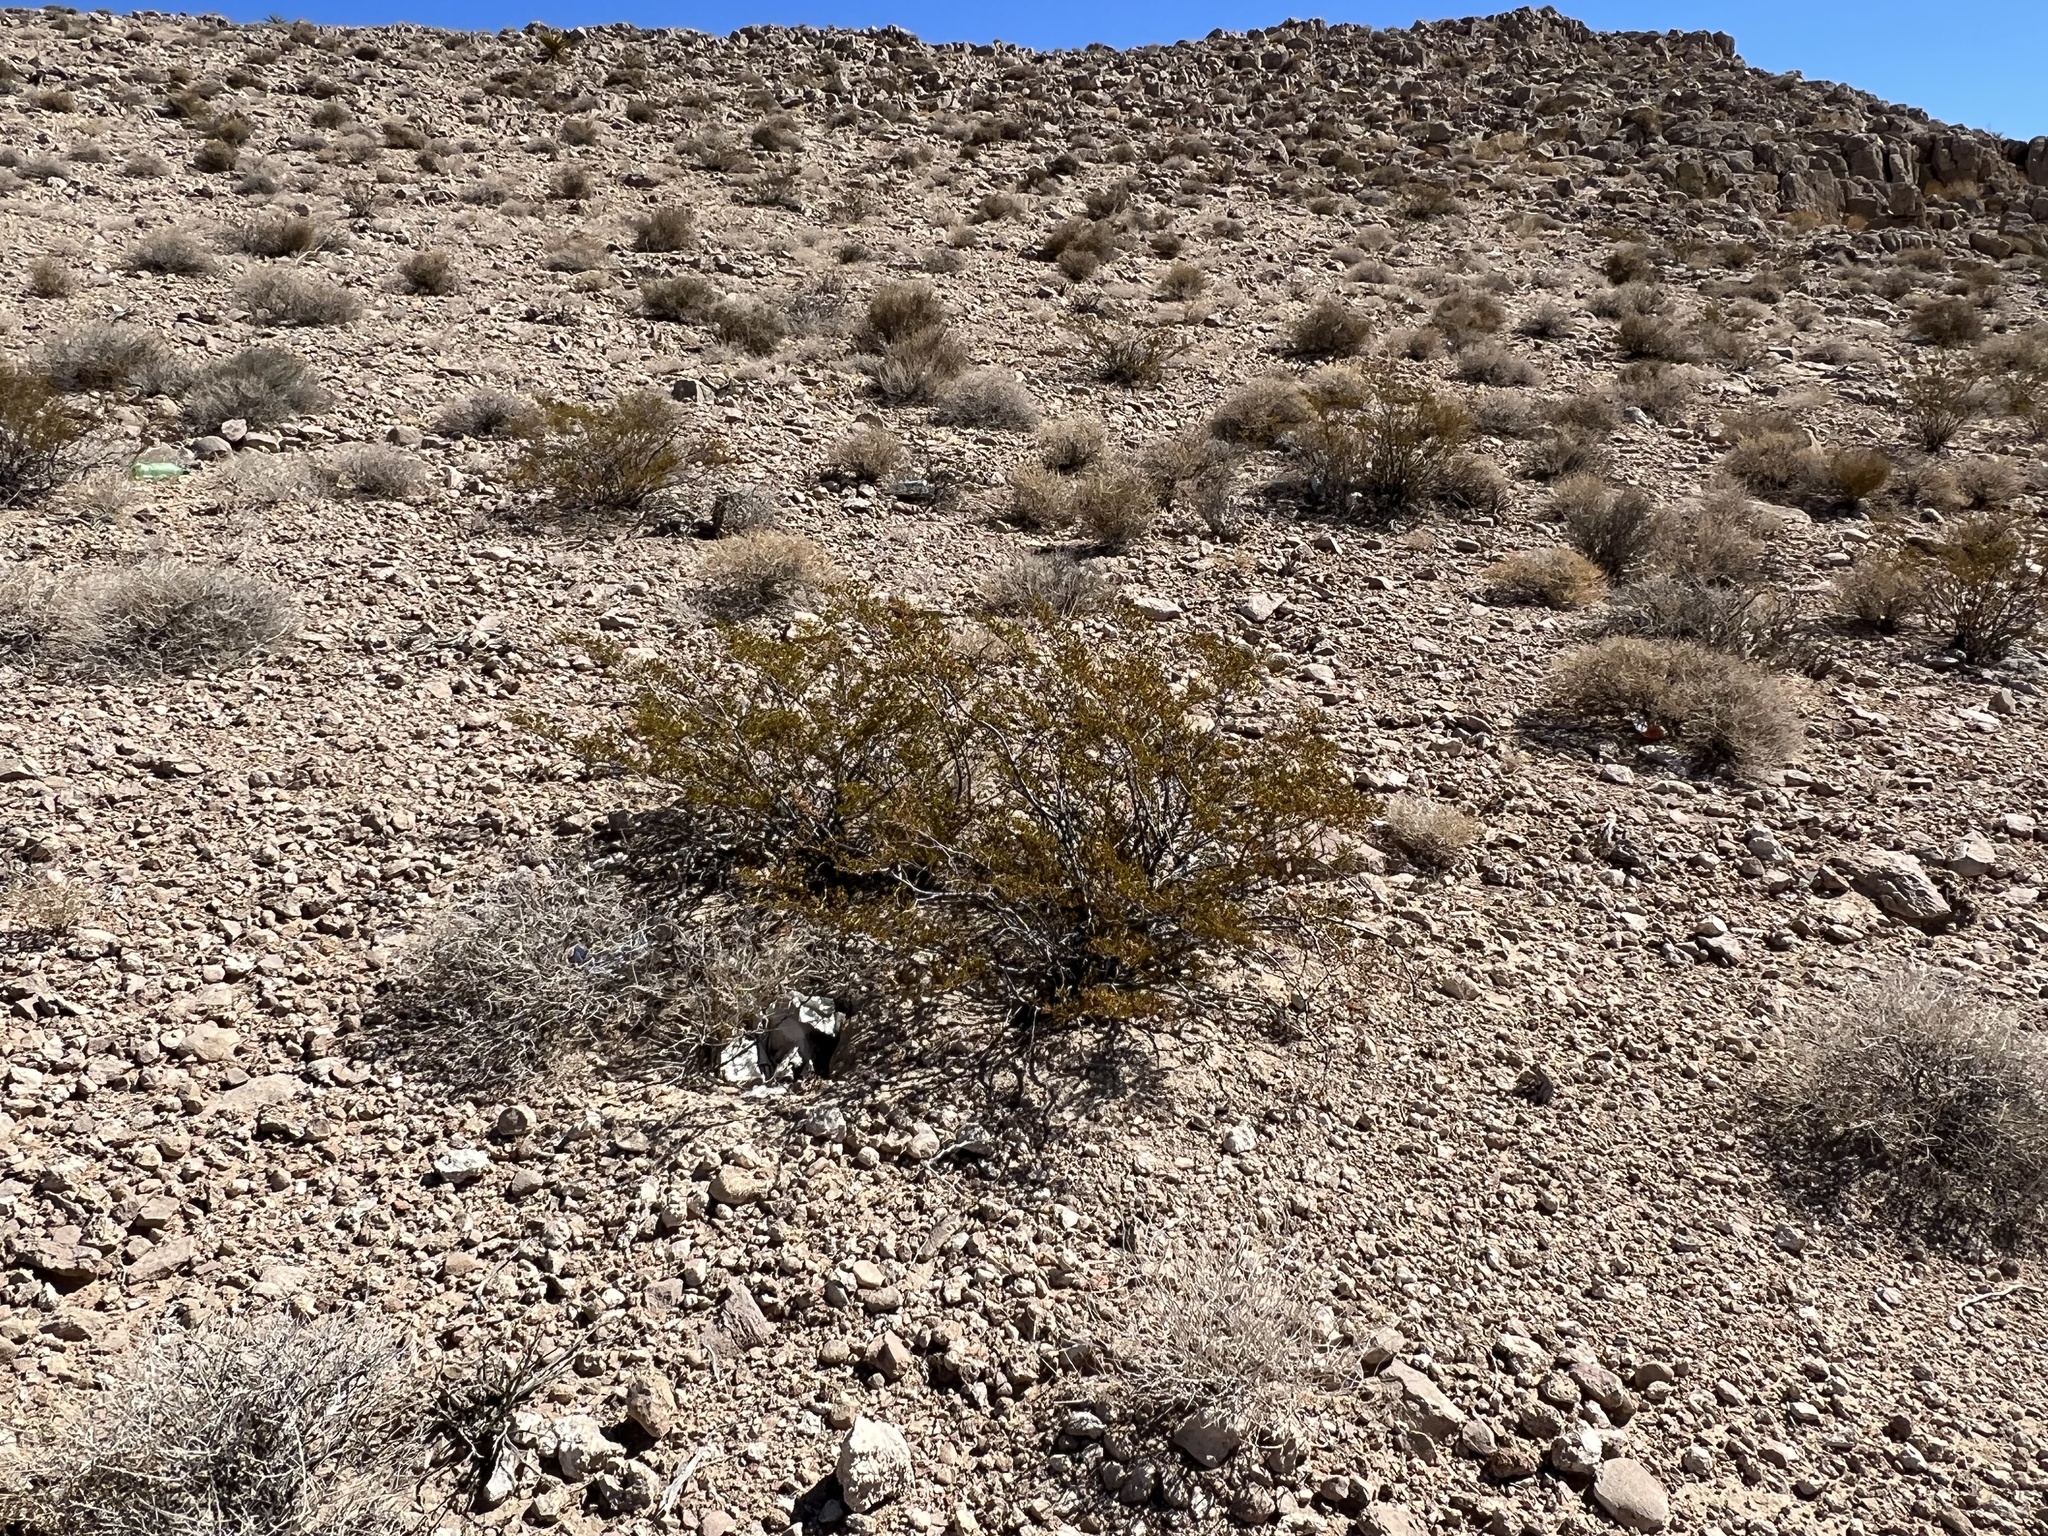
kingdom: Plantae
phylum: Tracheophyta
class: Magnoliopsida
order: Zygophyllales
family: Zygophyllaceae
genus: Larrea
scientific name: Larrea tridentata
